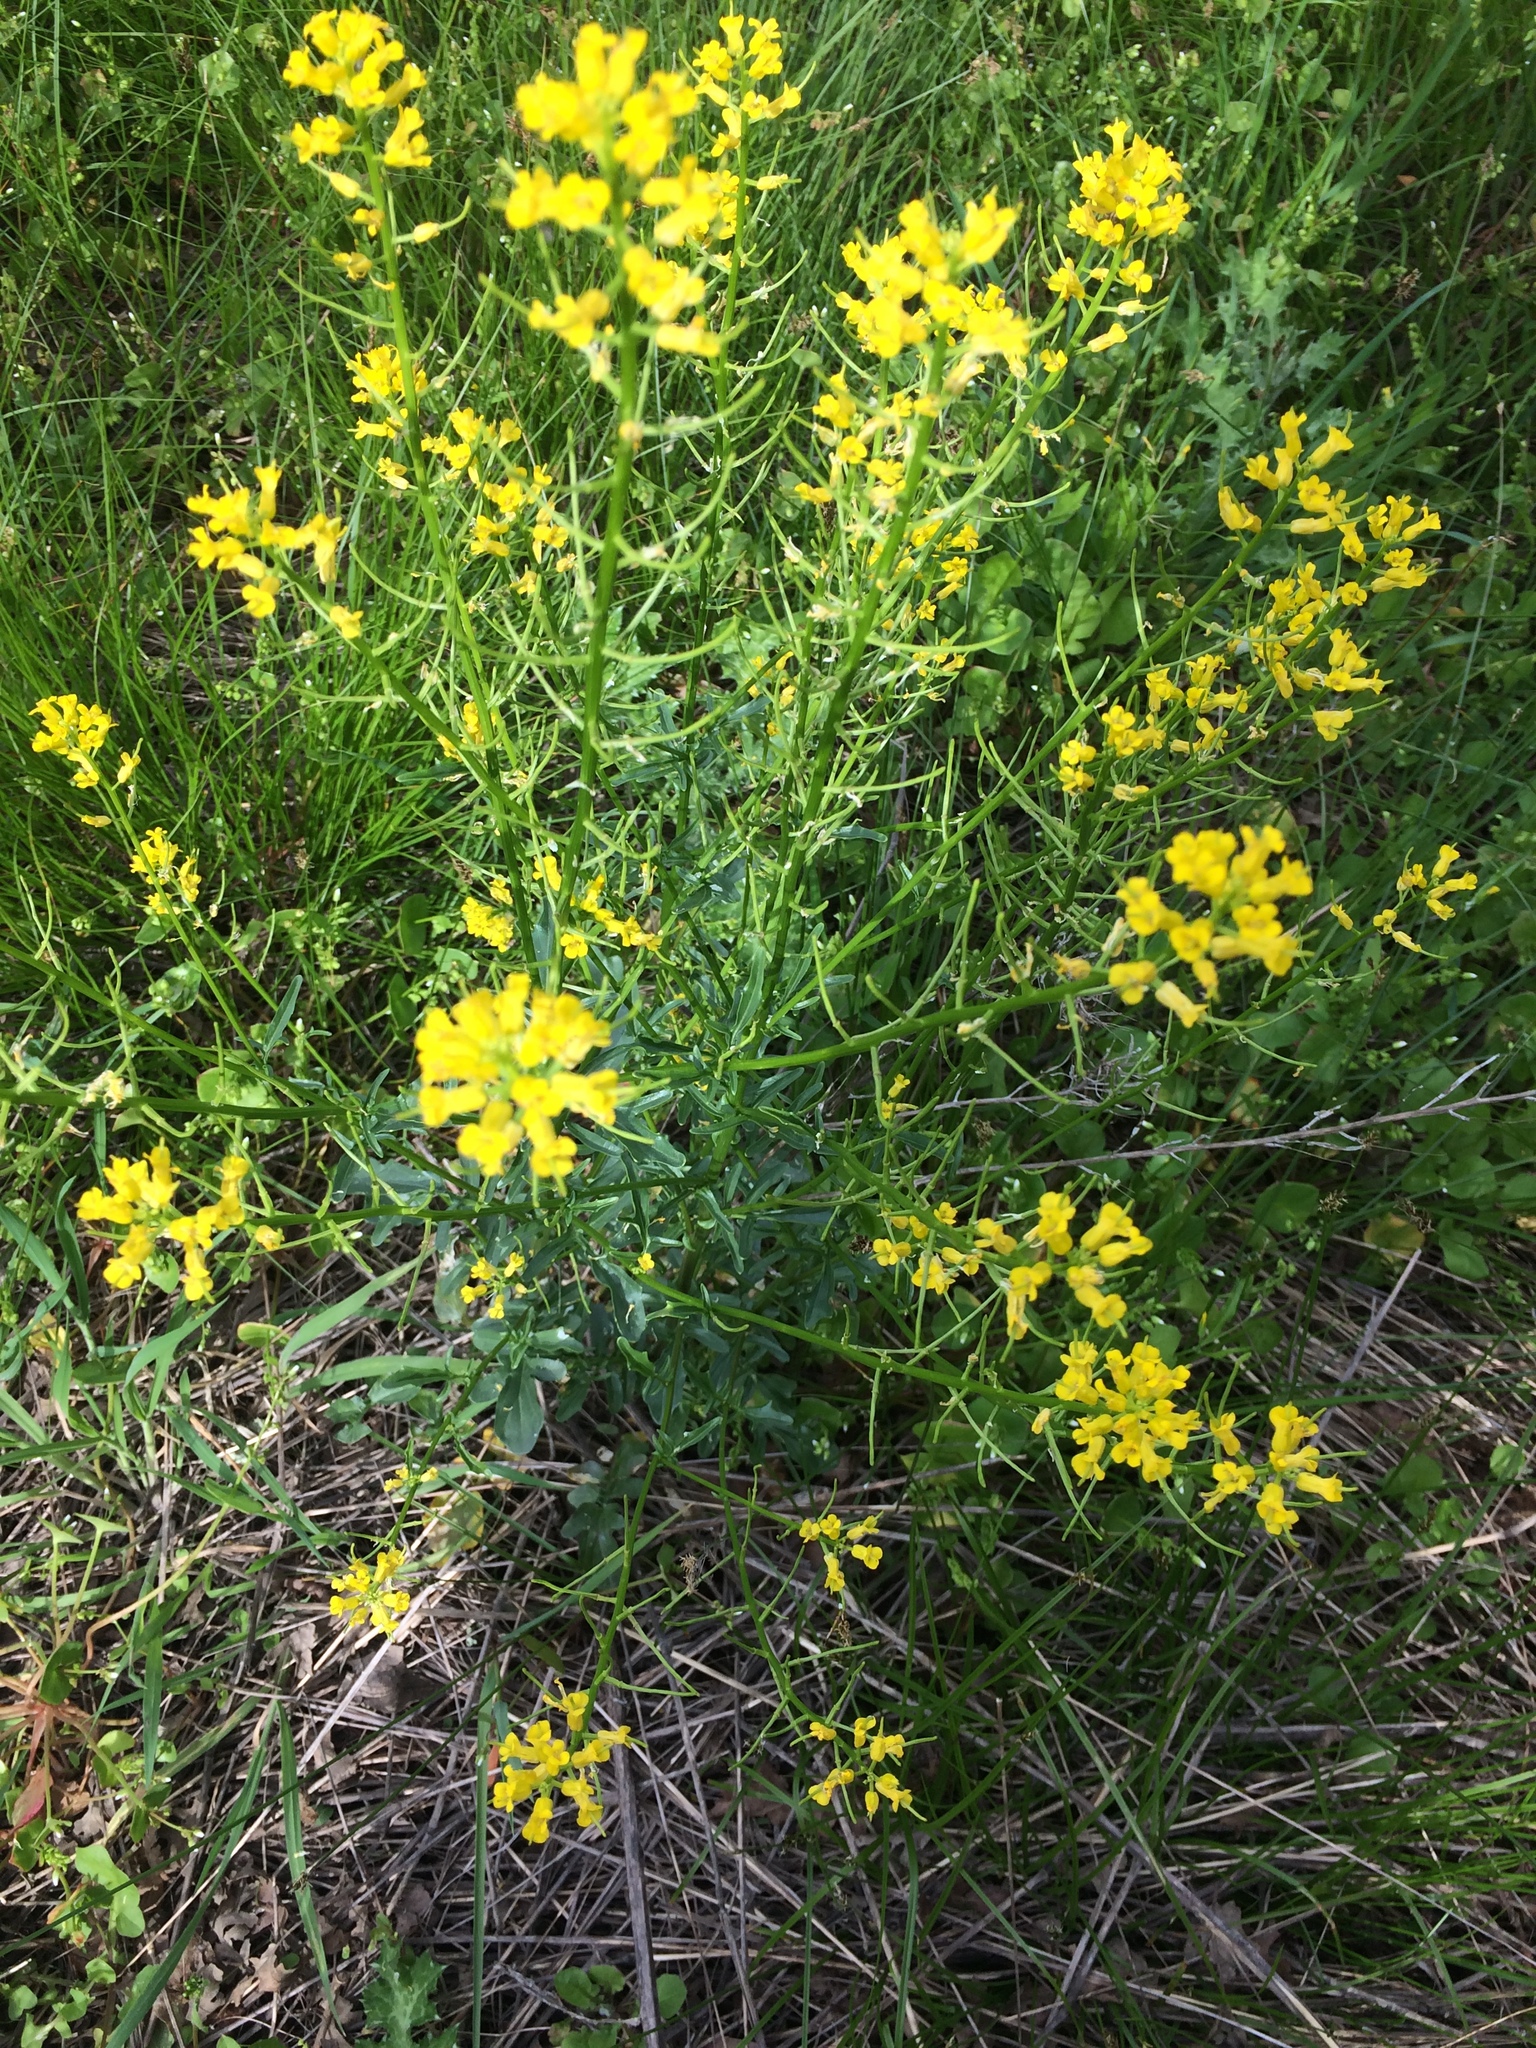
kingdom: Plantae
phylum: Tracheophyta
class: Magnoliopsida
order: Brassicales
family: Brassicaceae
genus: Brassica
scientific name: Brassica rapa
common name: Field mustard
